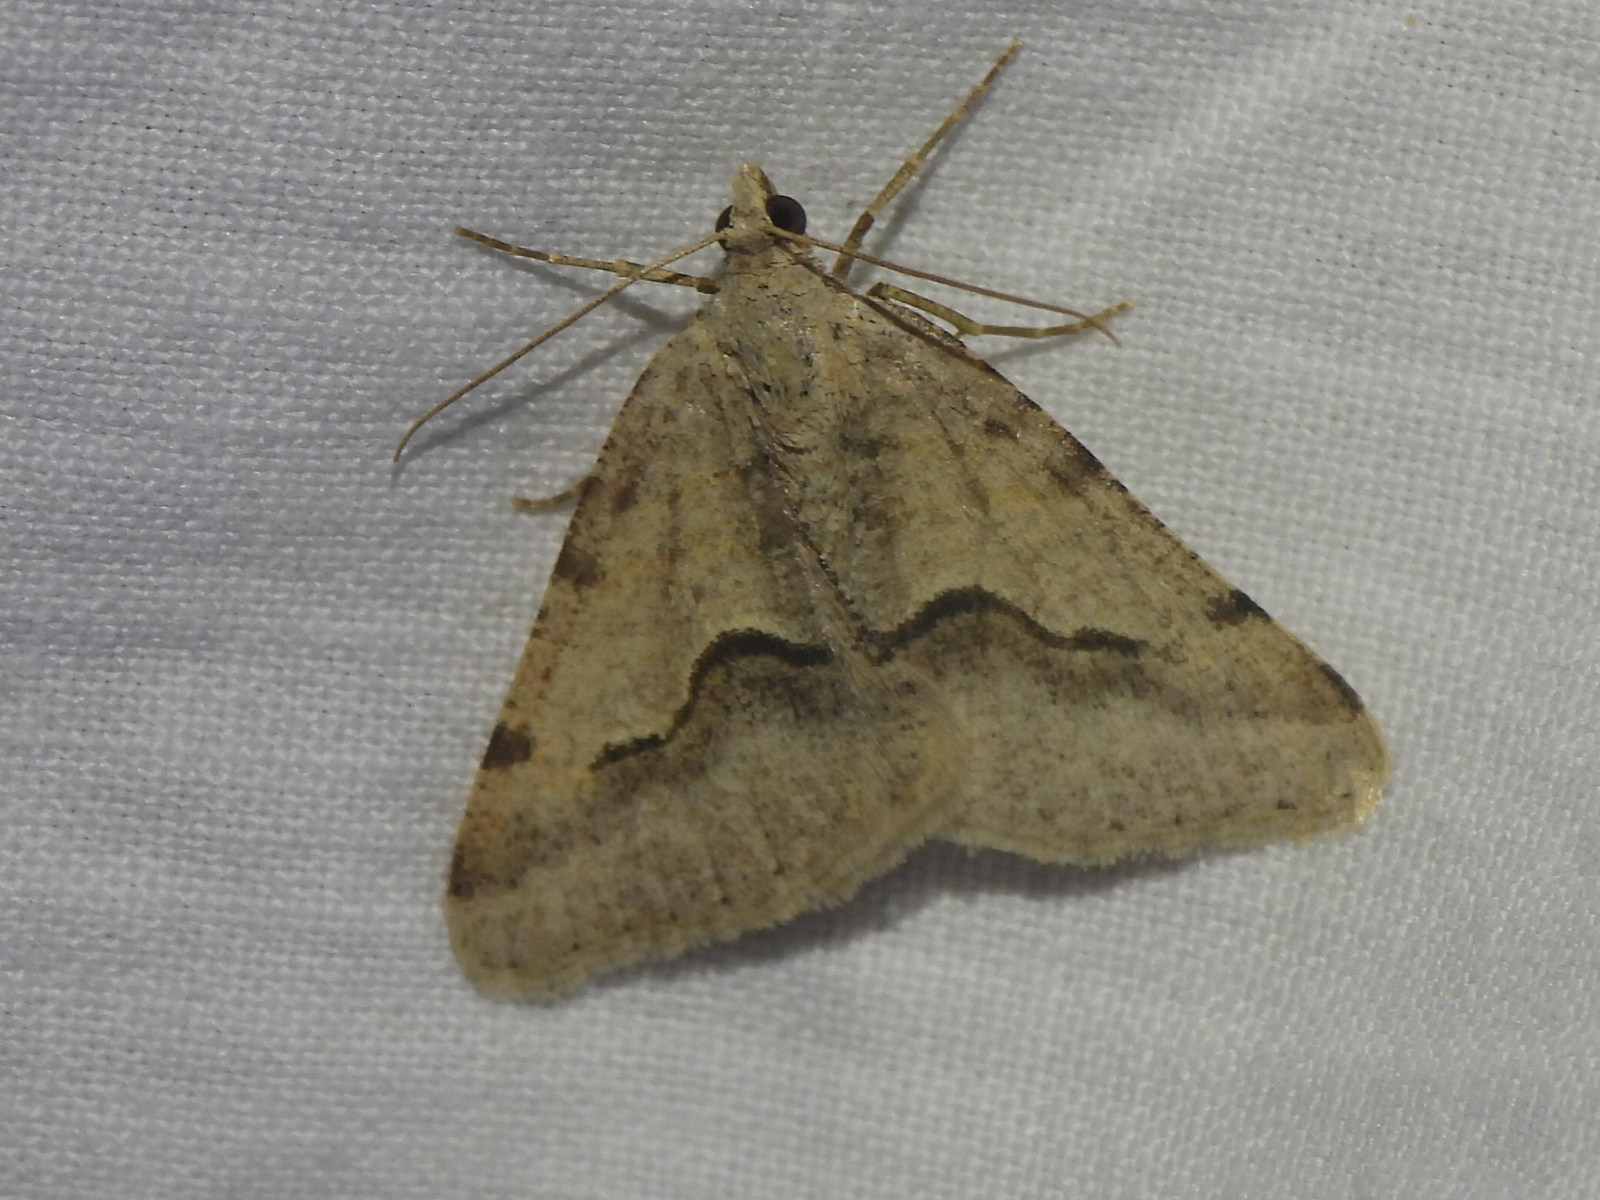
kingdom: Animalia
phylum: Arthropoda
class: Insecta
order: Lepidoptera
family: Geometridae
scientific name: Geometridae
